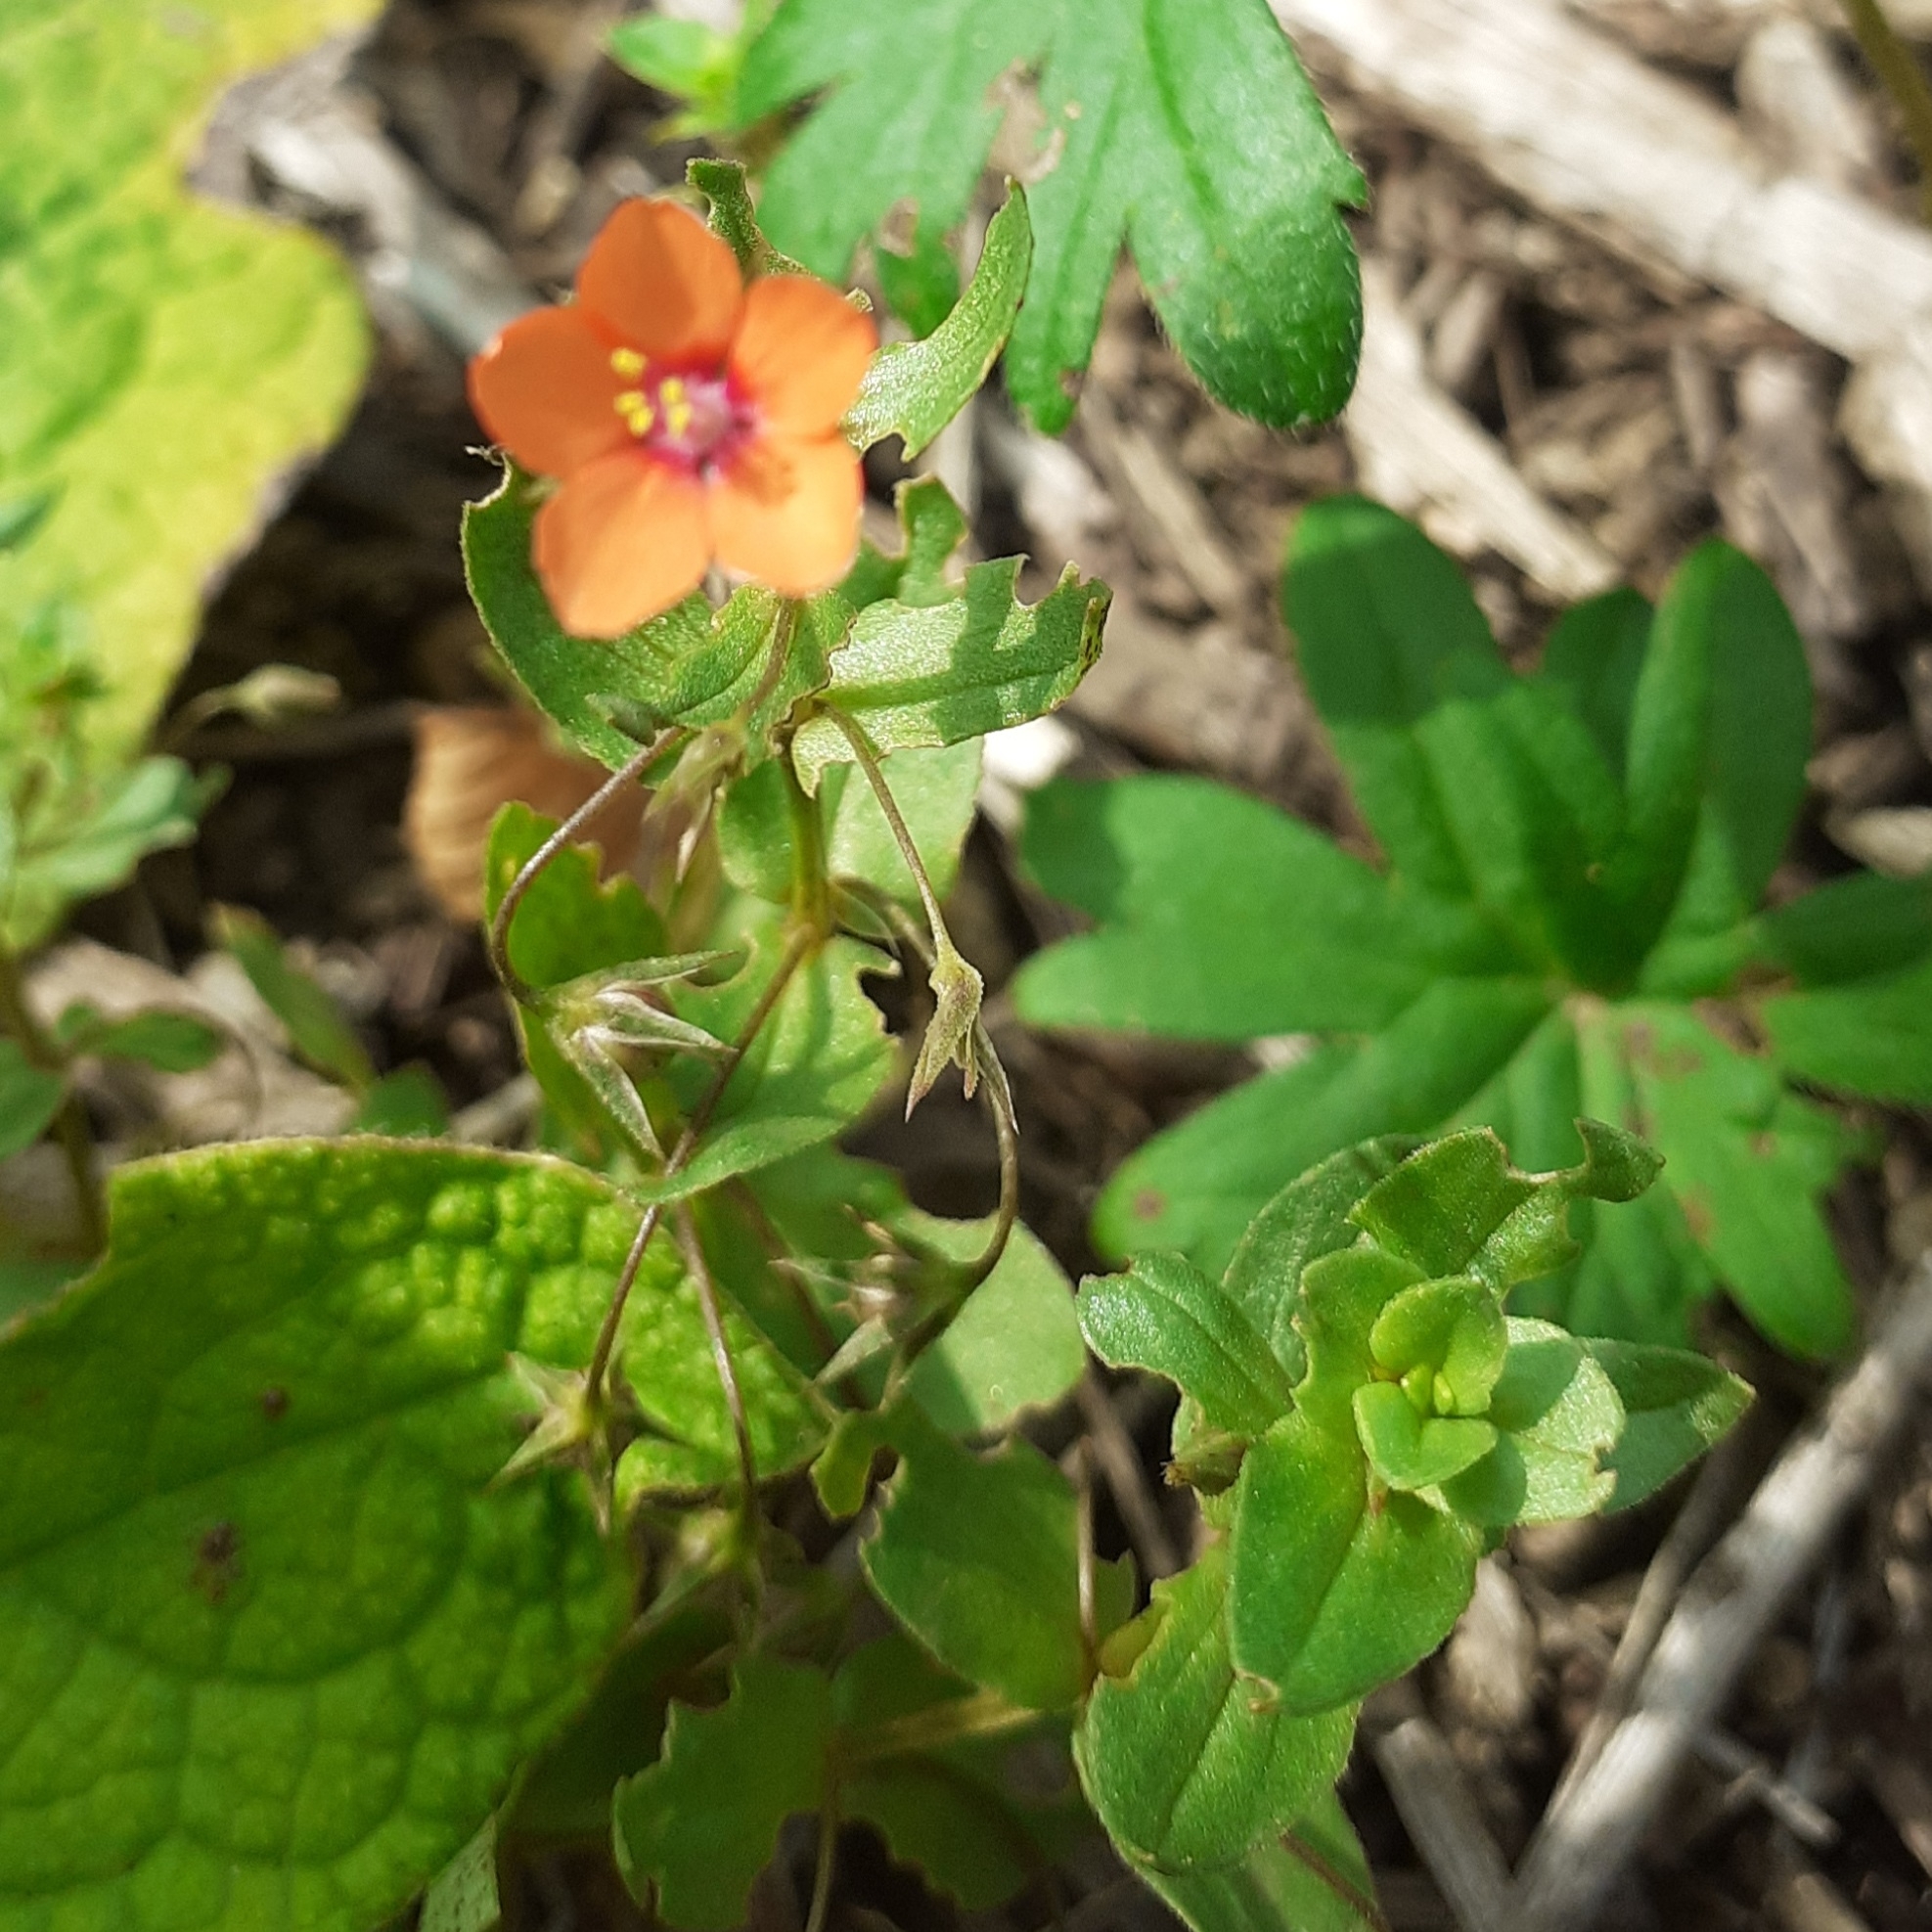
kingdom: Plantae
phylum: Tracheophyta
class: Magnoliopsida
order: Ericales
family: Primulaceae
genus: Lysimachia
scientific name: Lysimachia arvensis
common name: Scarlet pimpernel
